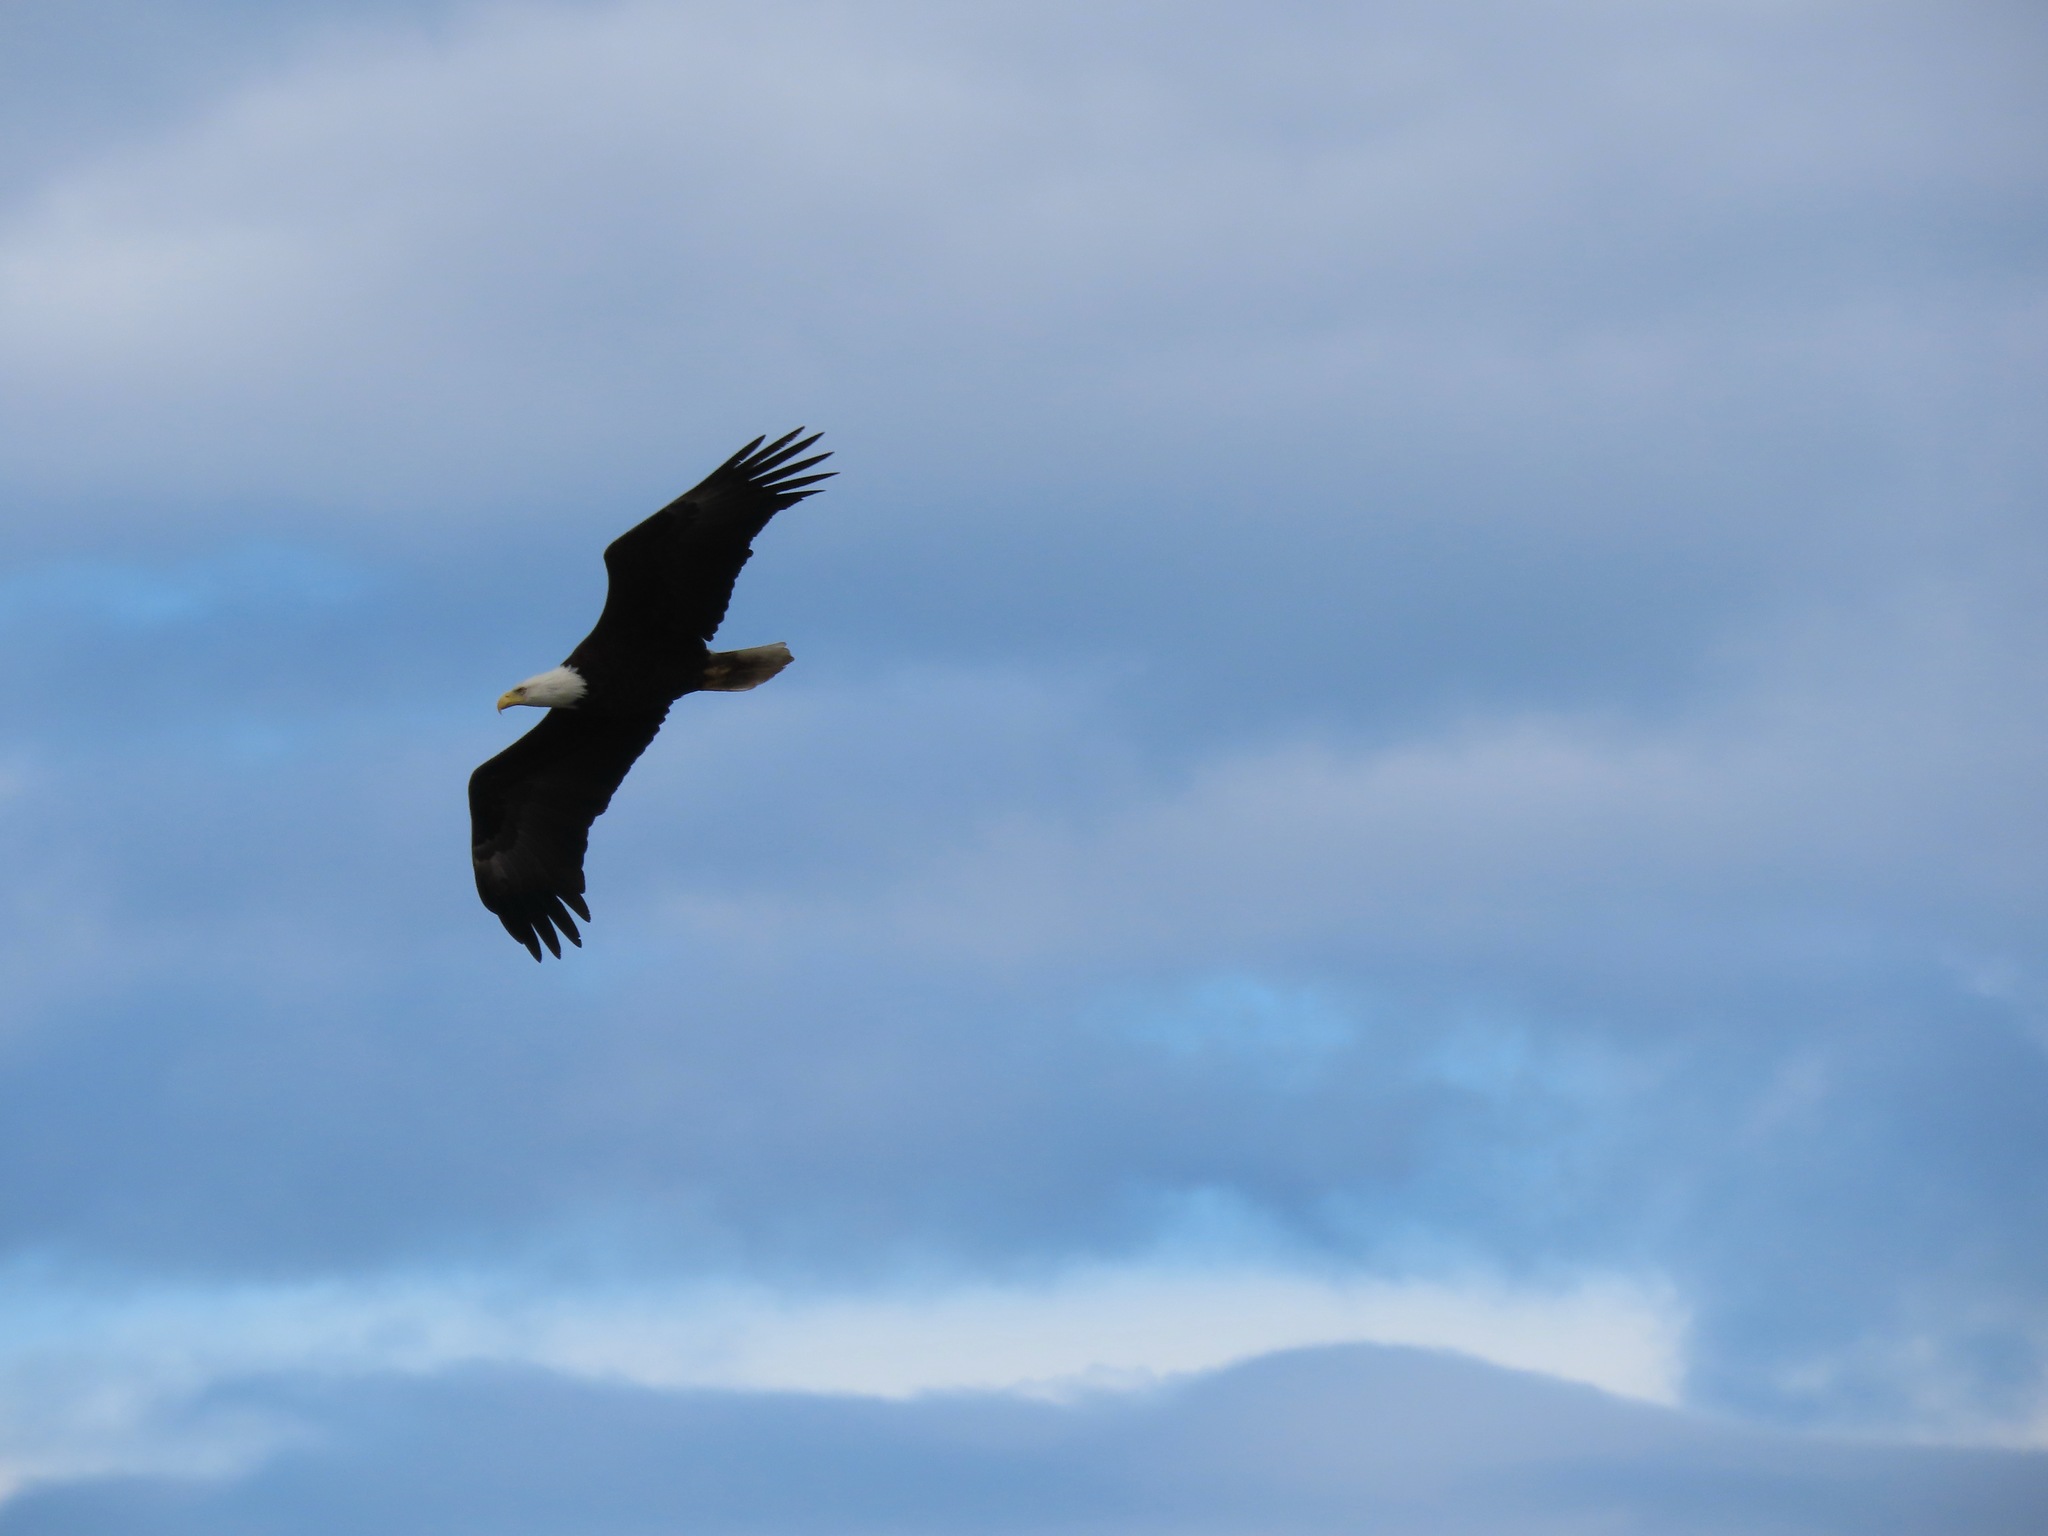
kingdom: Animalia
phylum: Chordata
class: Aves
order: Accipitriformes
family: Accipitridae
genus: Haliaeetus
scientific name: Haliaeetus leucocephalus
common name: Bald eagle
